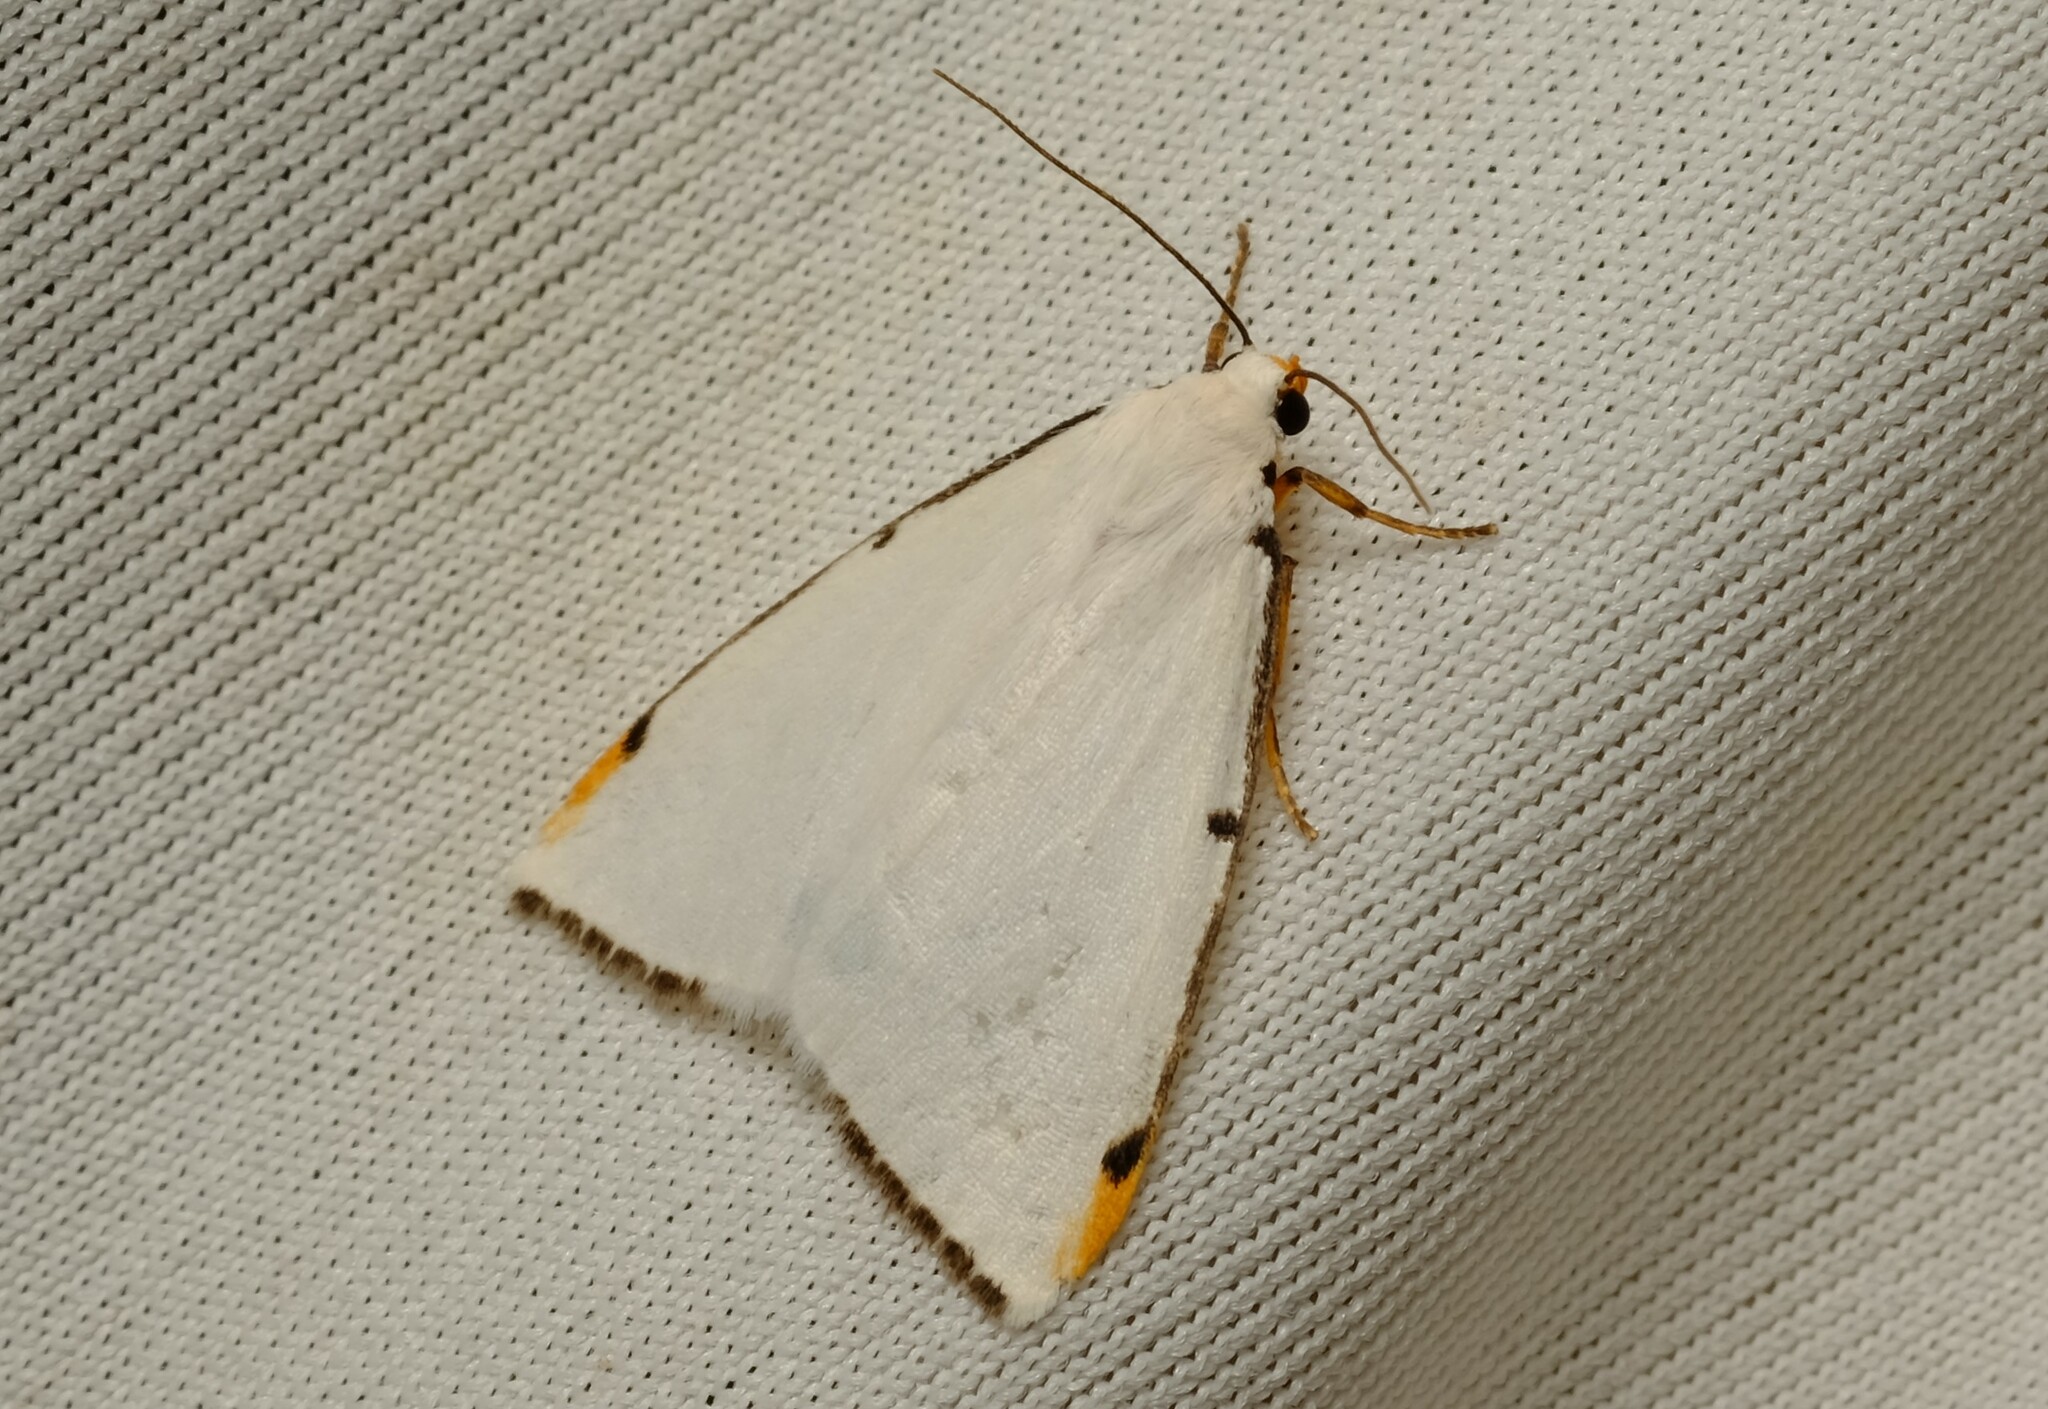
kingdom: Animalia
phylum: Arthropoda
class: Insecta
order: Lepidoptera
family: Erebidae
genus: Termessa
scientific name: Termessa nivosa
